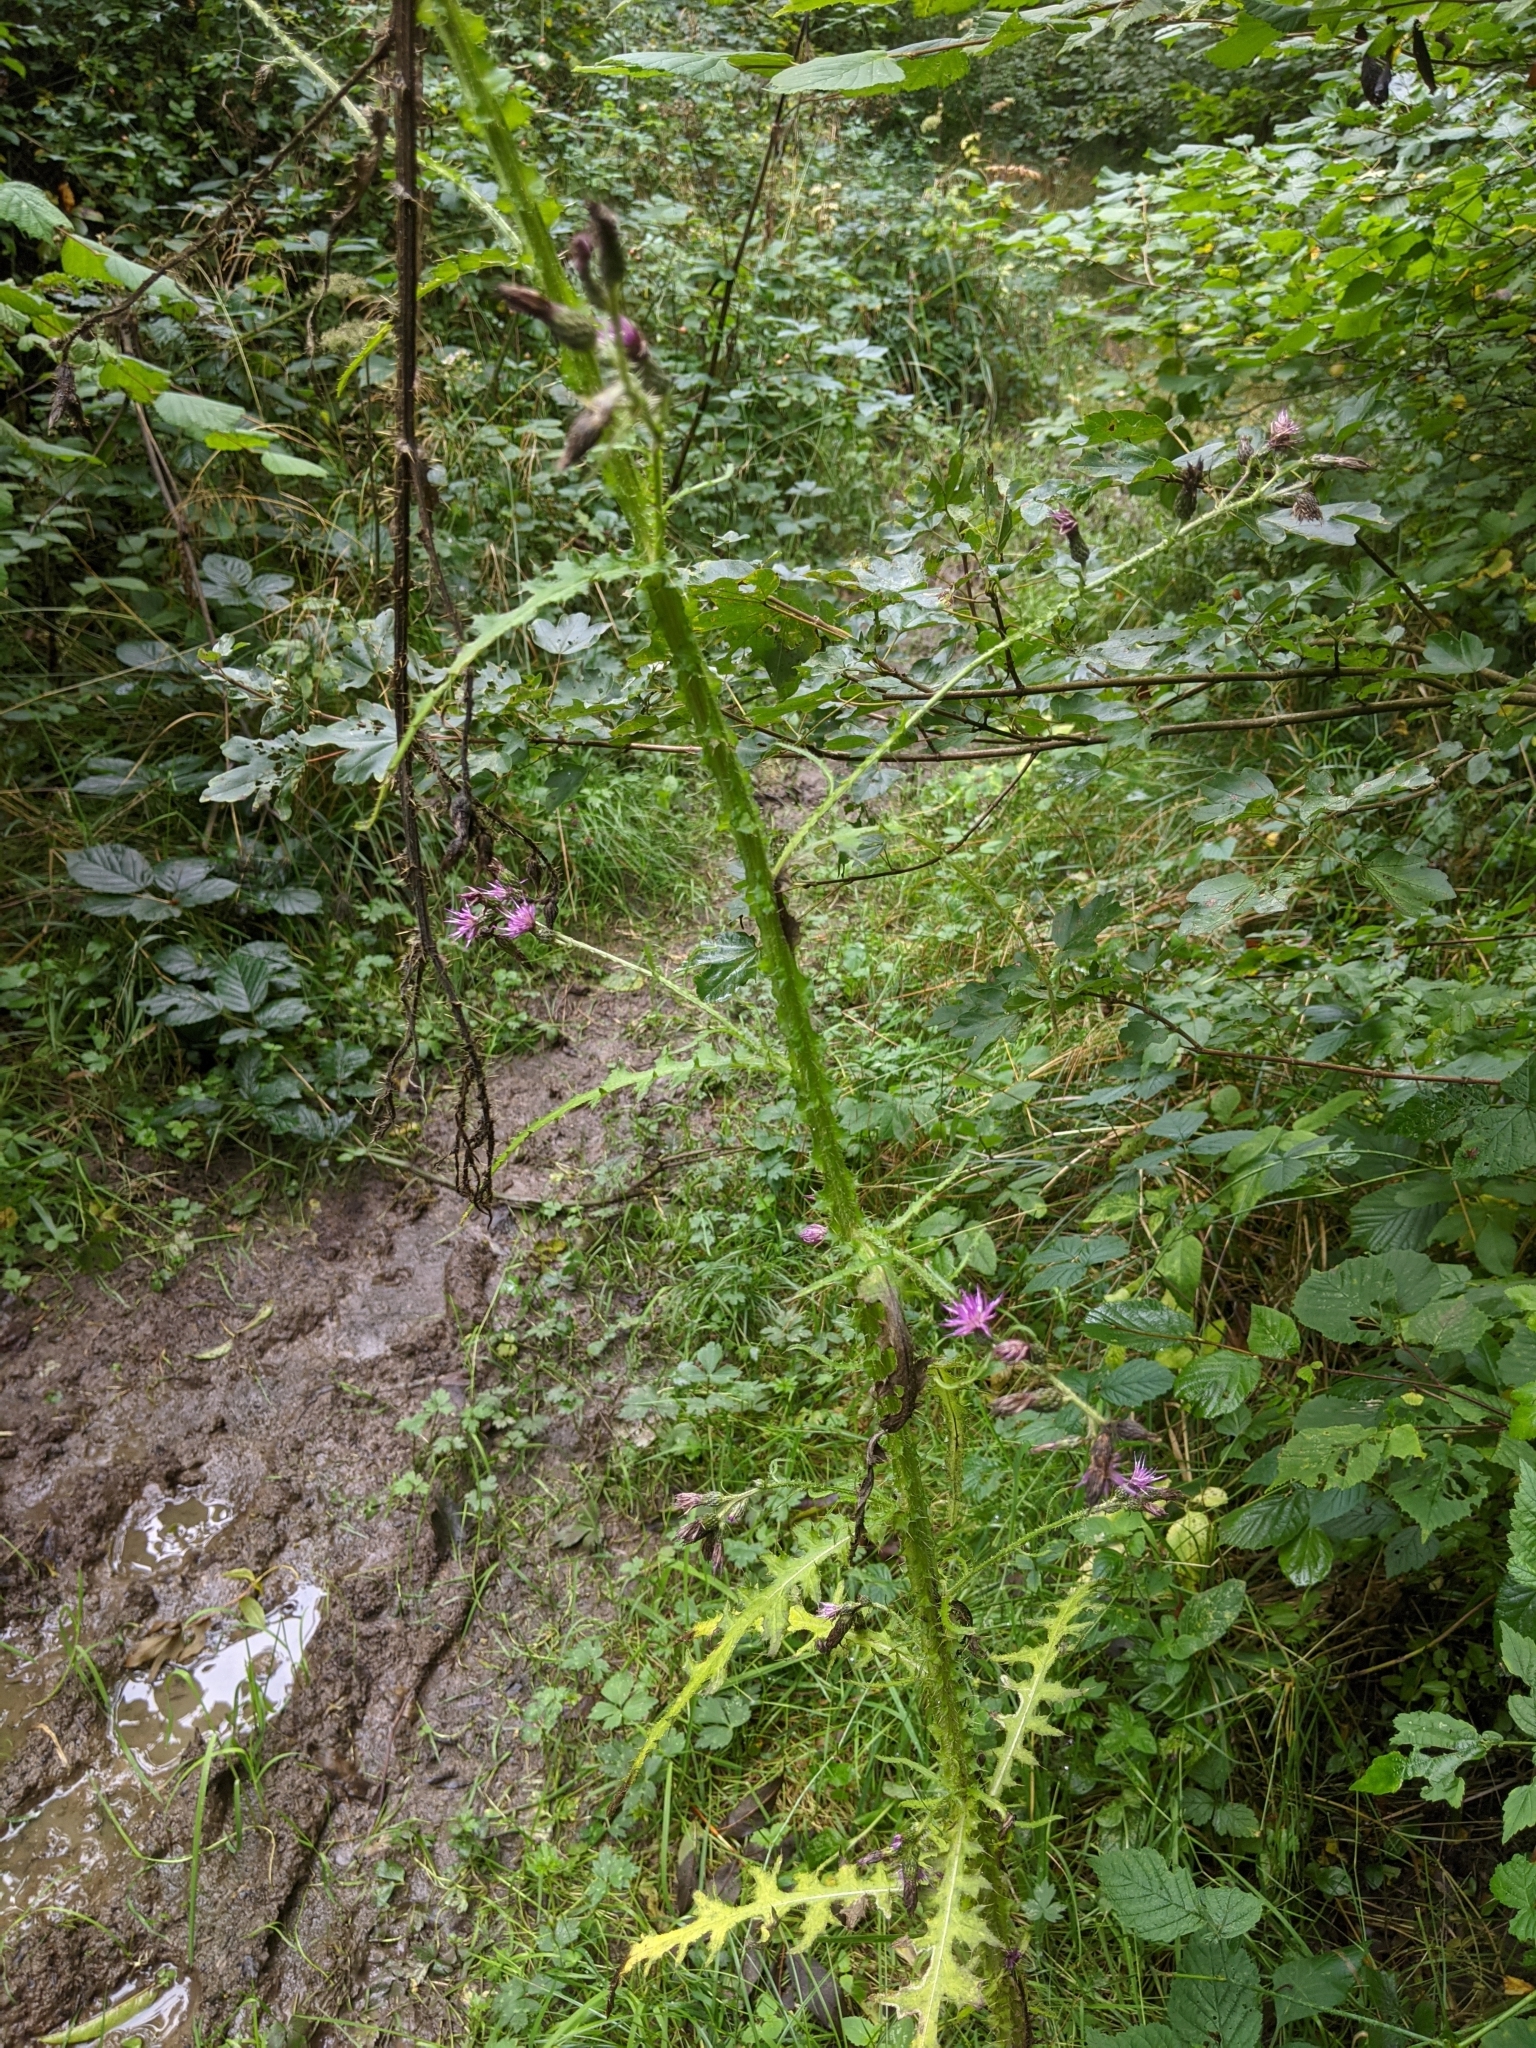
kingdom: Plantae
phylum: Tracheophyta
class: Magnoliopsida
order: Asterales
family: Asteraceae
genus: Cirsium
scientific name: Cirsium palustre
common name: Marsh thistle
